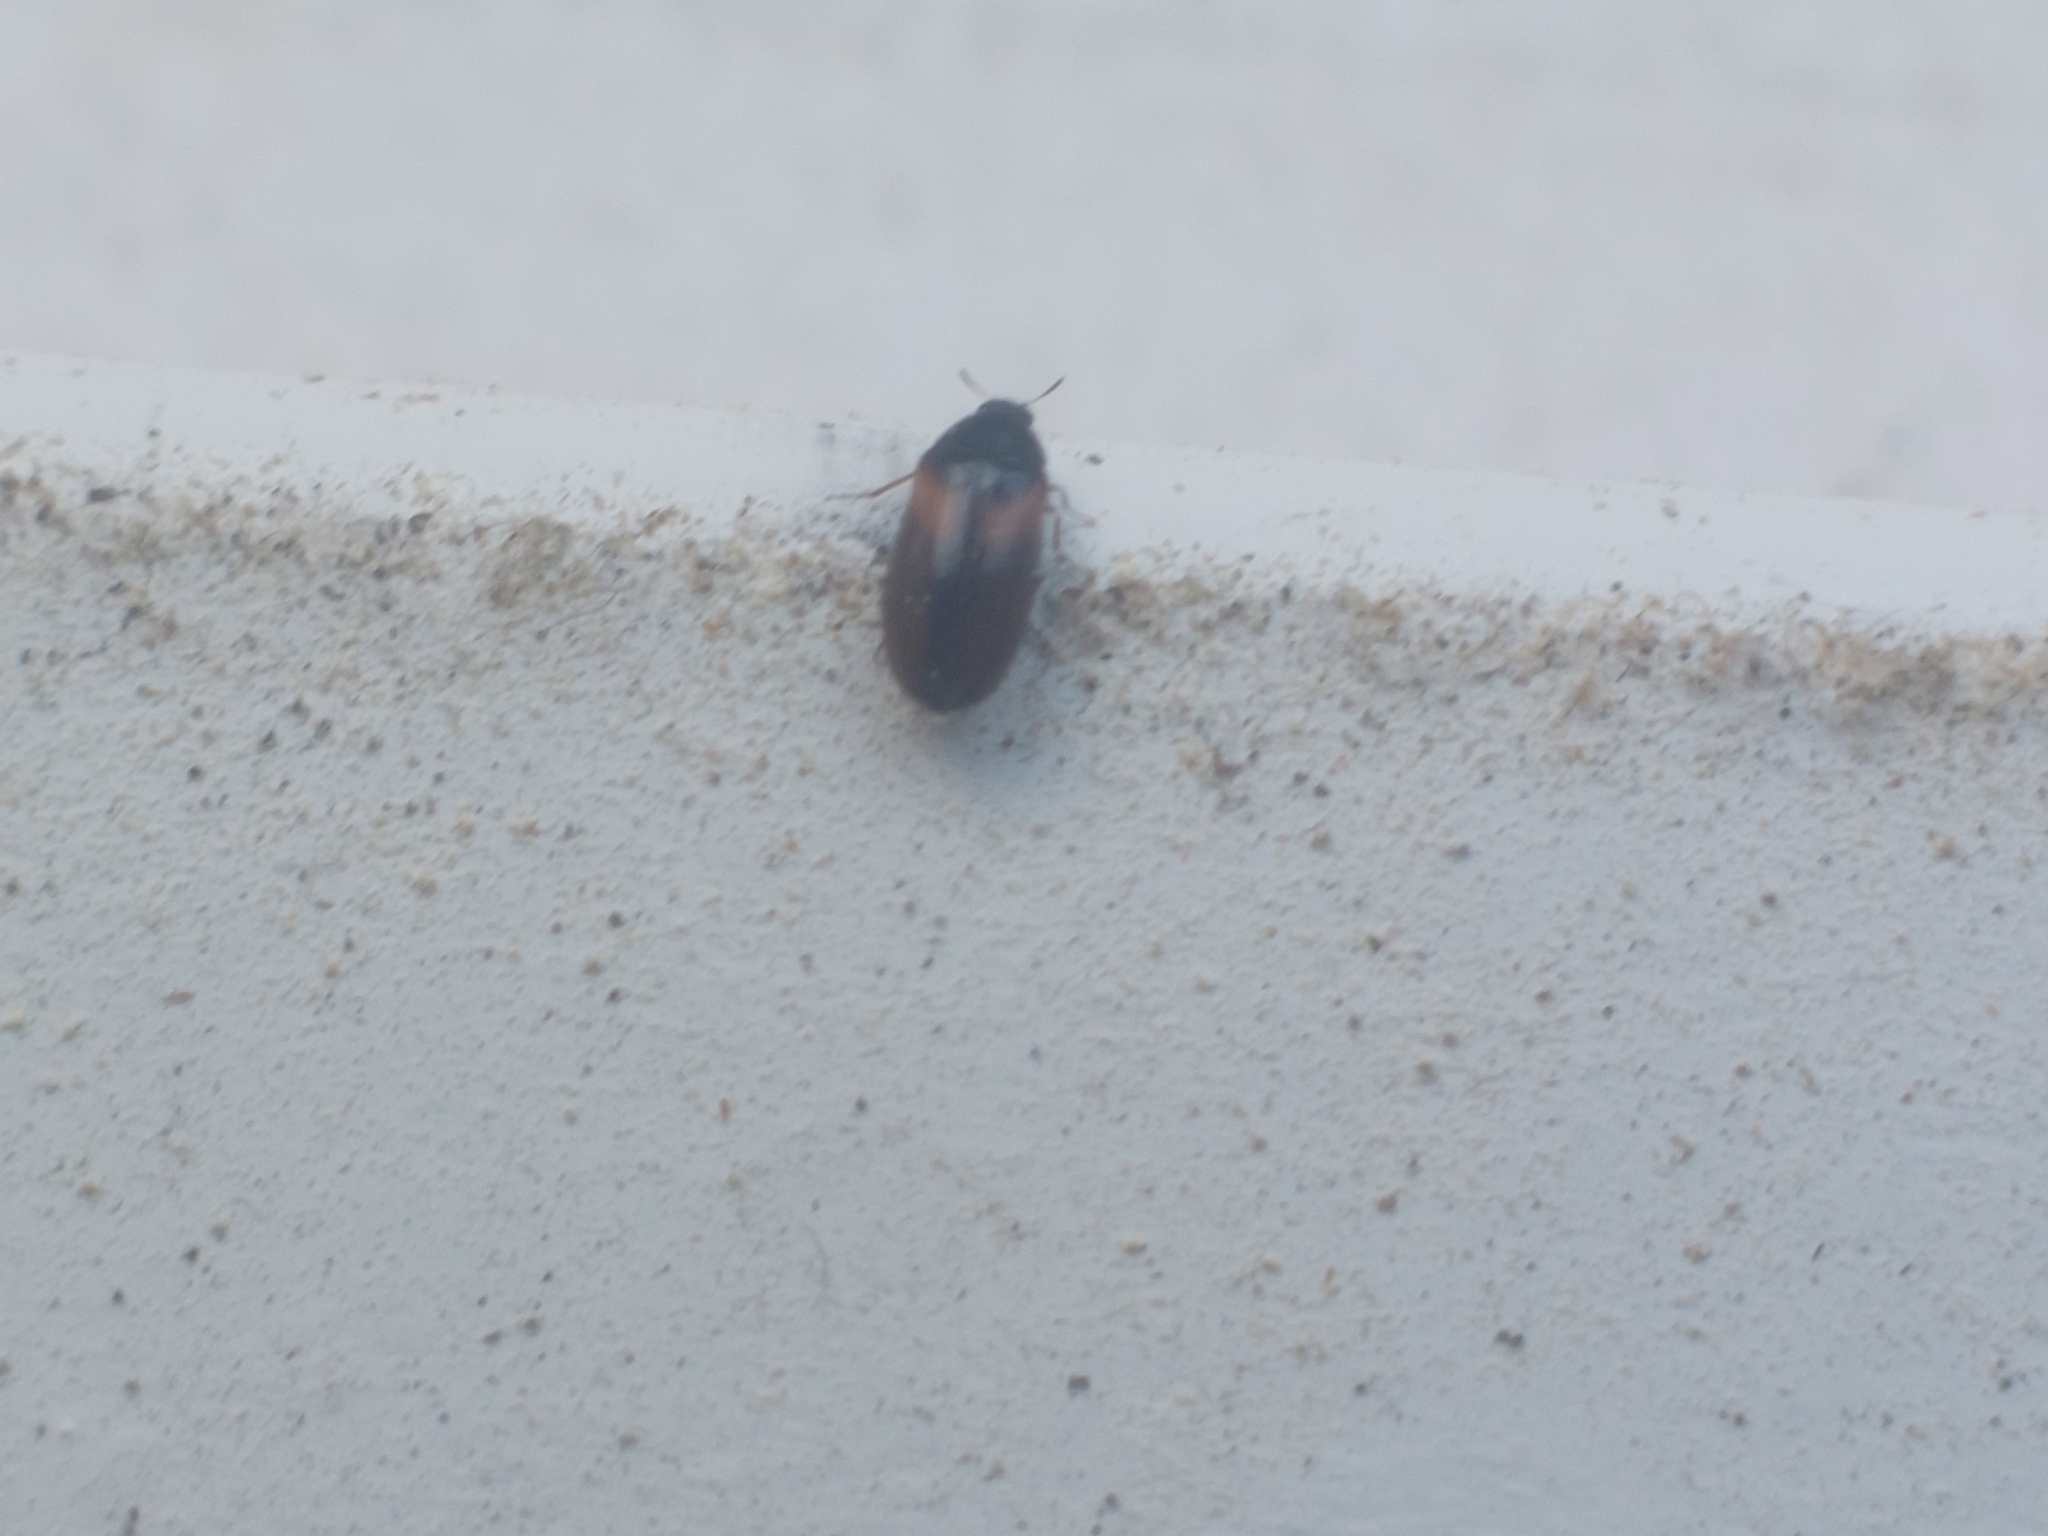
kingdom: Animalia
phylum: Arthropoda
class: Insecta
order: Coleoptera
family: Dermestidae
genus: Reesa
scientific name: Reesa vespulae
